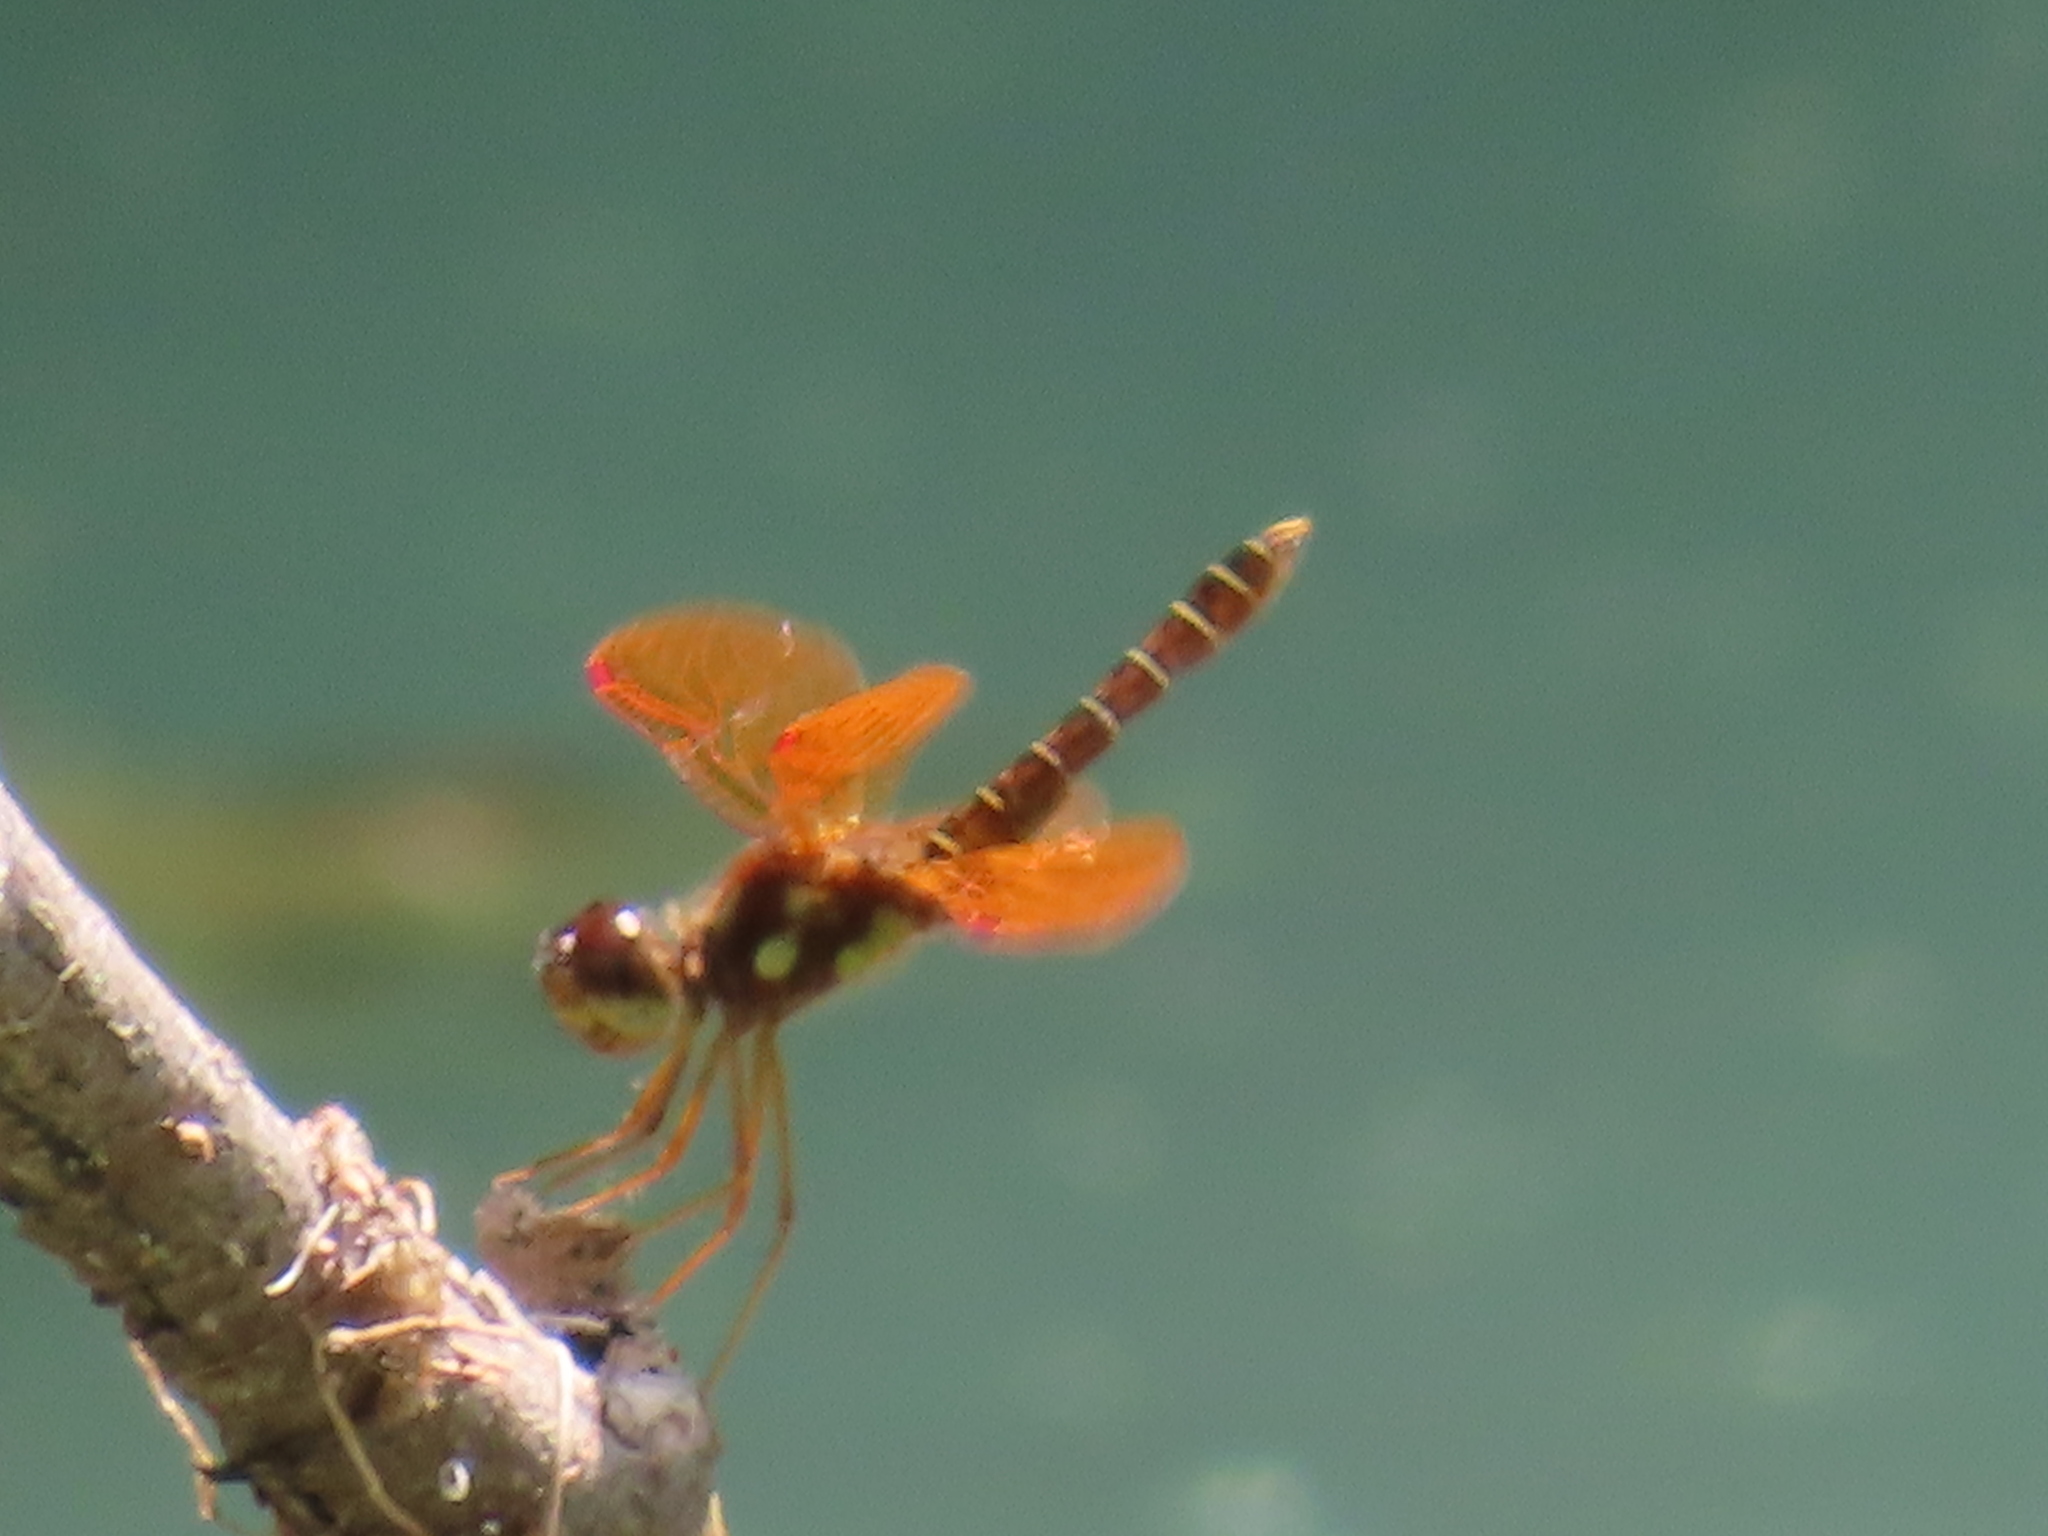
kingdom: Animalia
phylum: Arthropoda
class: Insecta
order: Odonata
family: Libellulidae
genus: Perithemis
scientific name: Perithemis tenera
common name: Eastern amberwing
